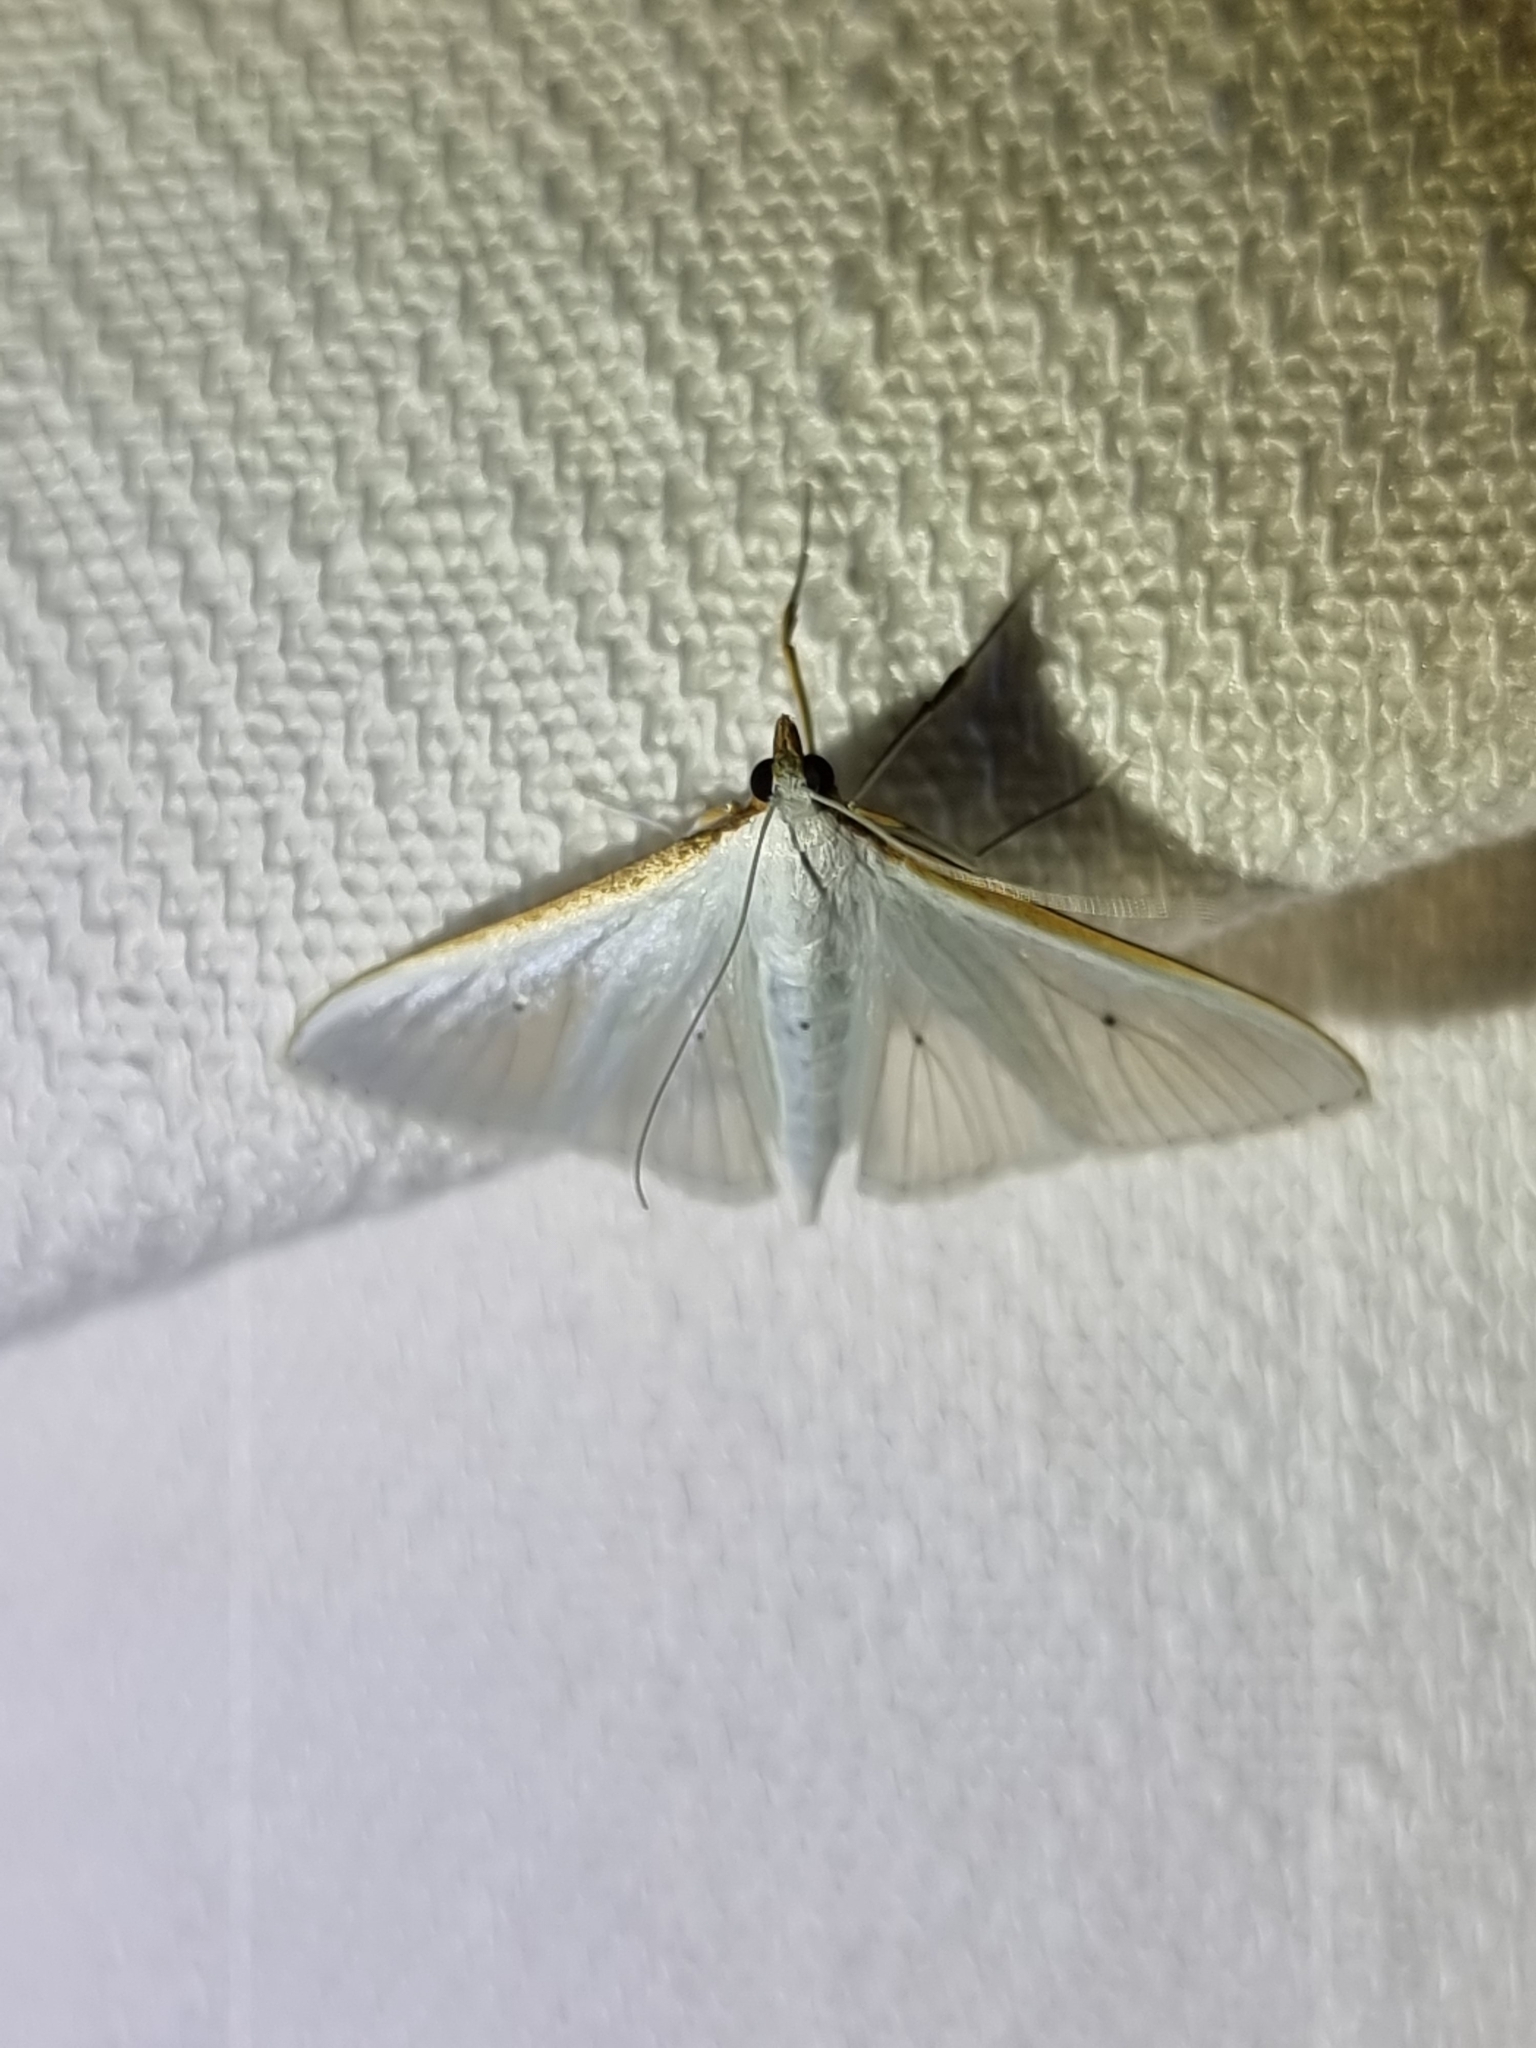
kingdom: Animalia
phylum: Arthropoda
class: Insecta
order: Lepidoptera
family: Crambidae
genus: Palpita
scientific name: Palpita margaritacea
